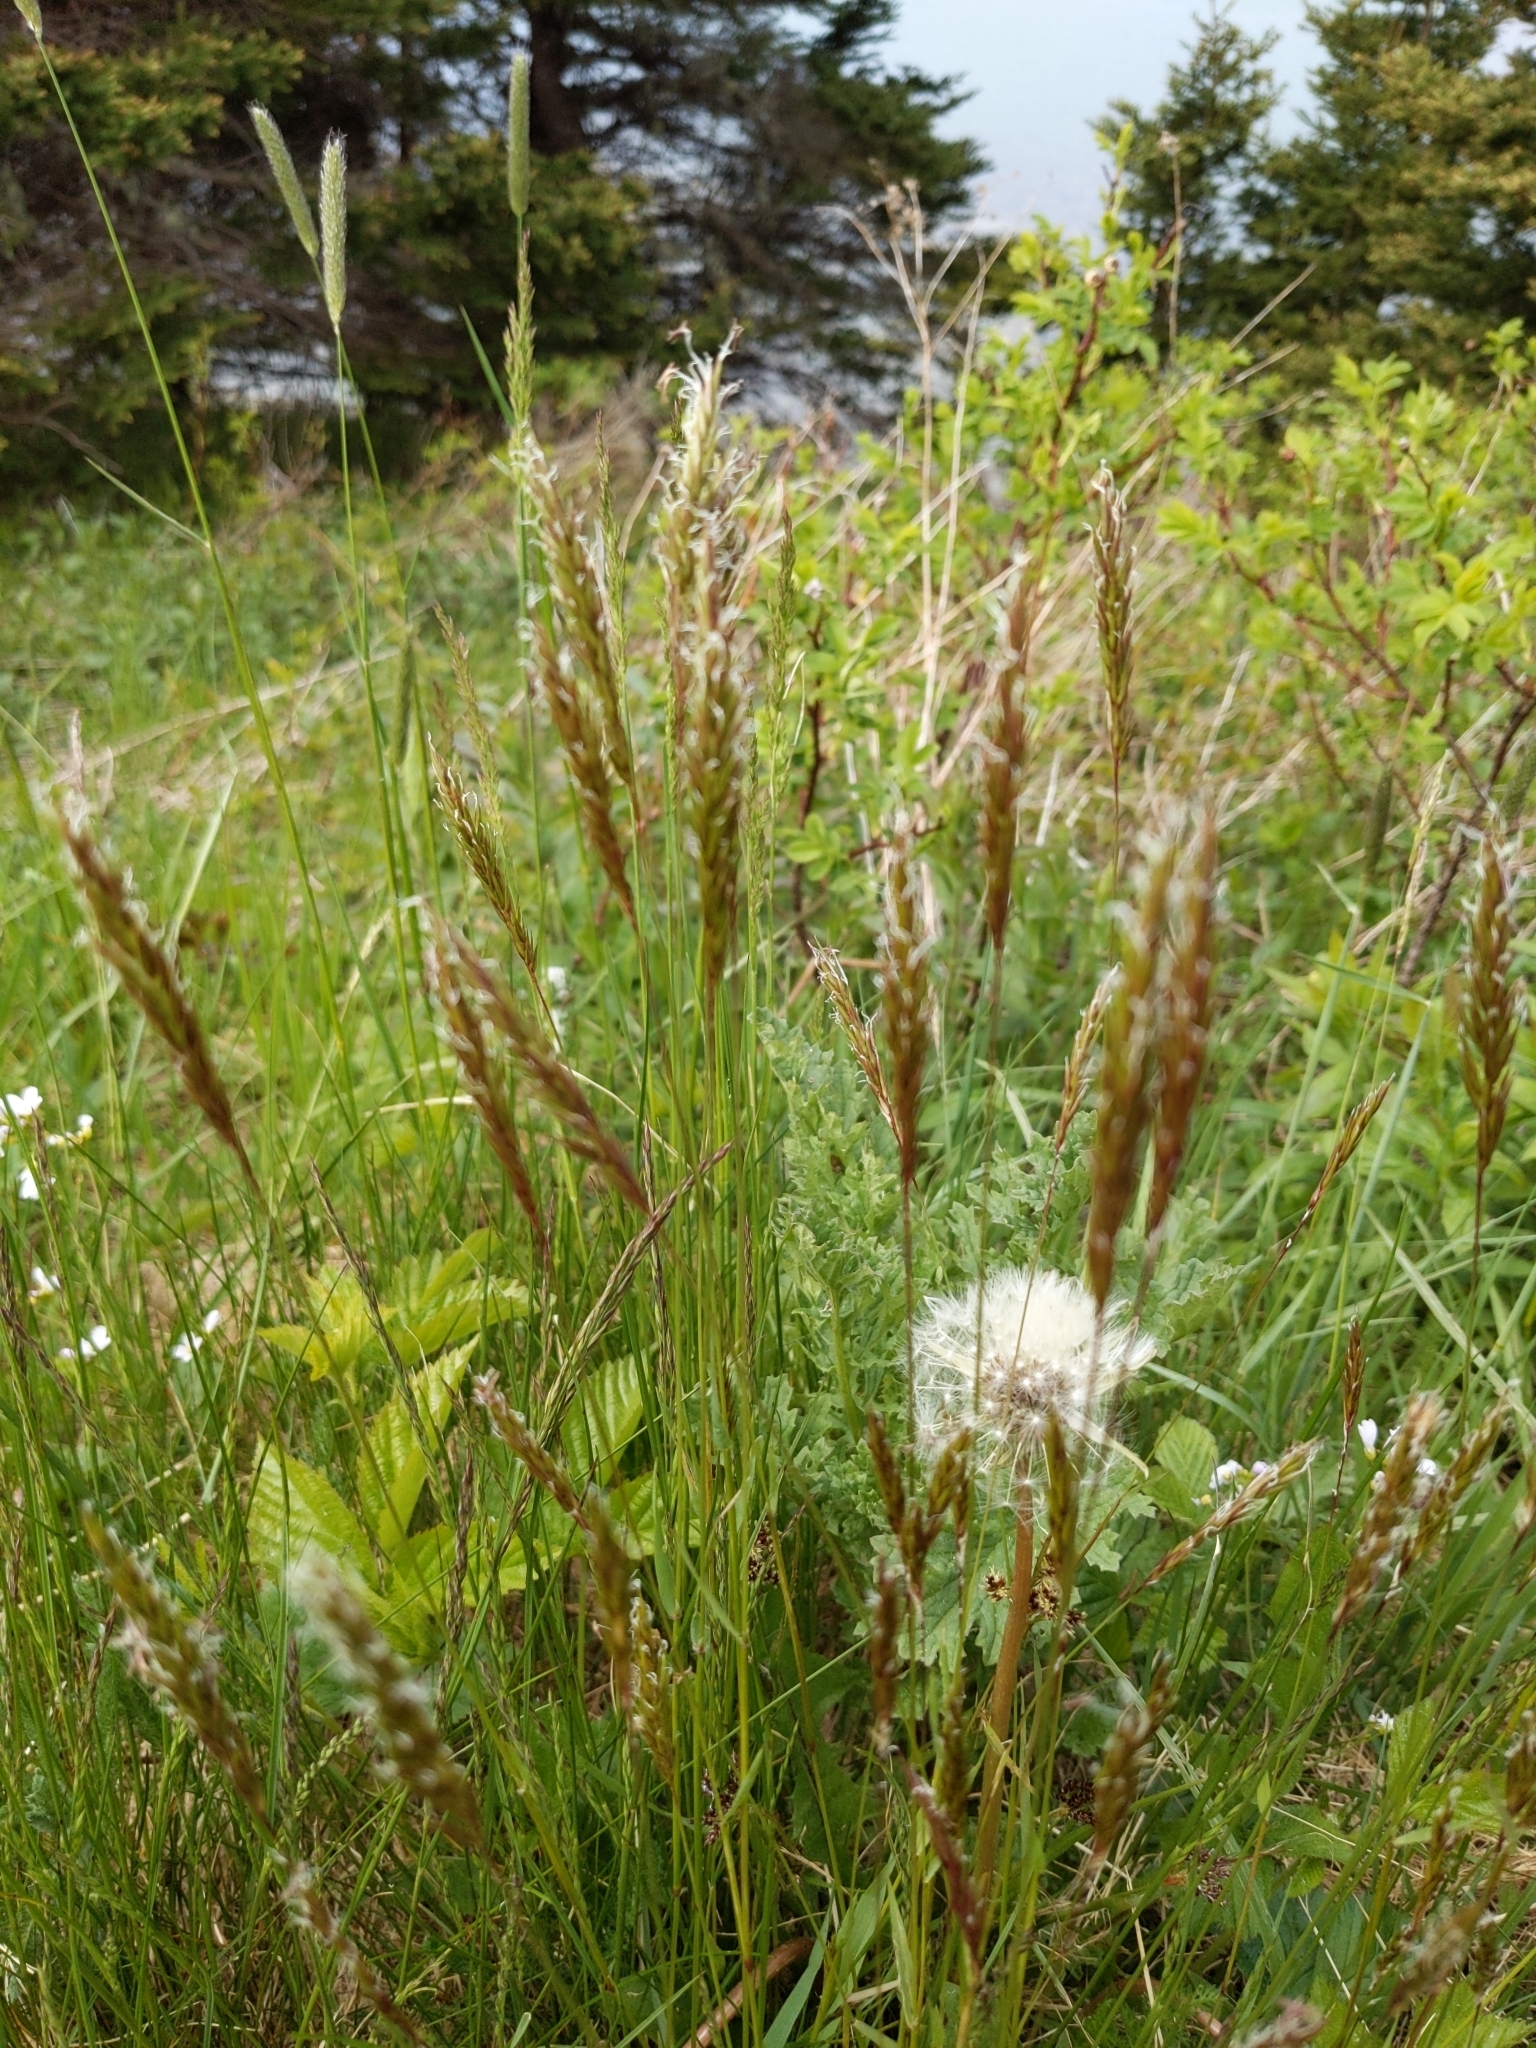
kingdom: Plantae
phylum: Tracheophyta
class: Liliopsida
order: Poales
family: Poaceae
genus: Anthoxanthum
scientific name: Anthoxanthum odoratum
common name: Sweet vernalgrass
